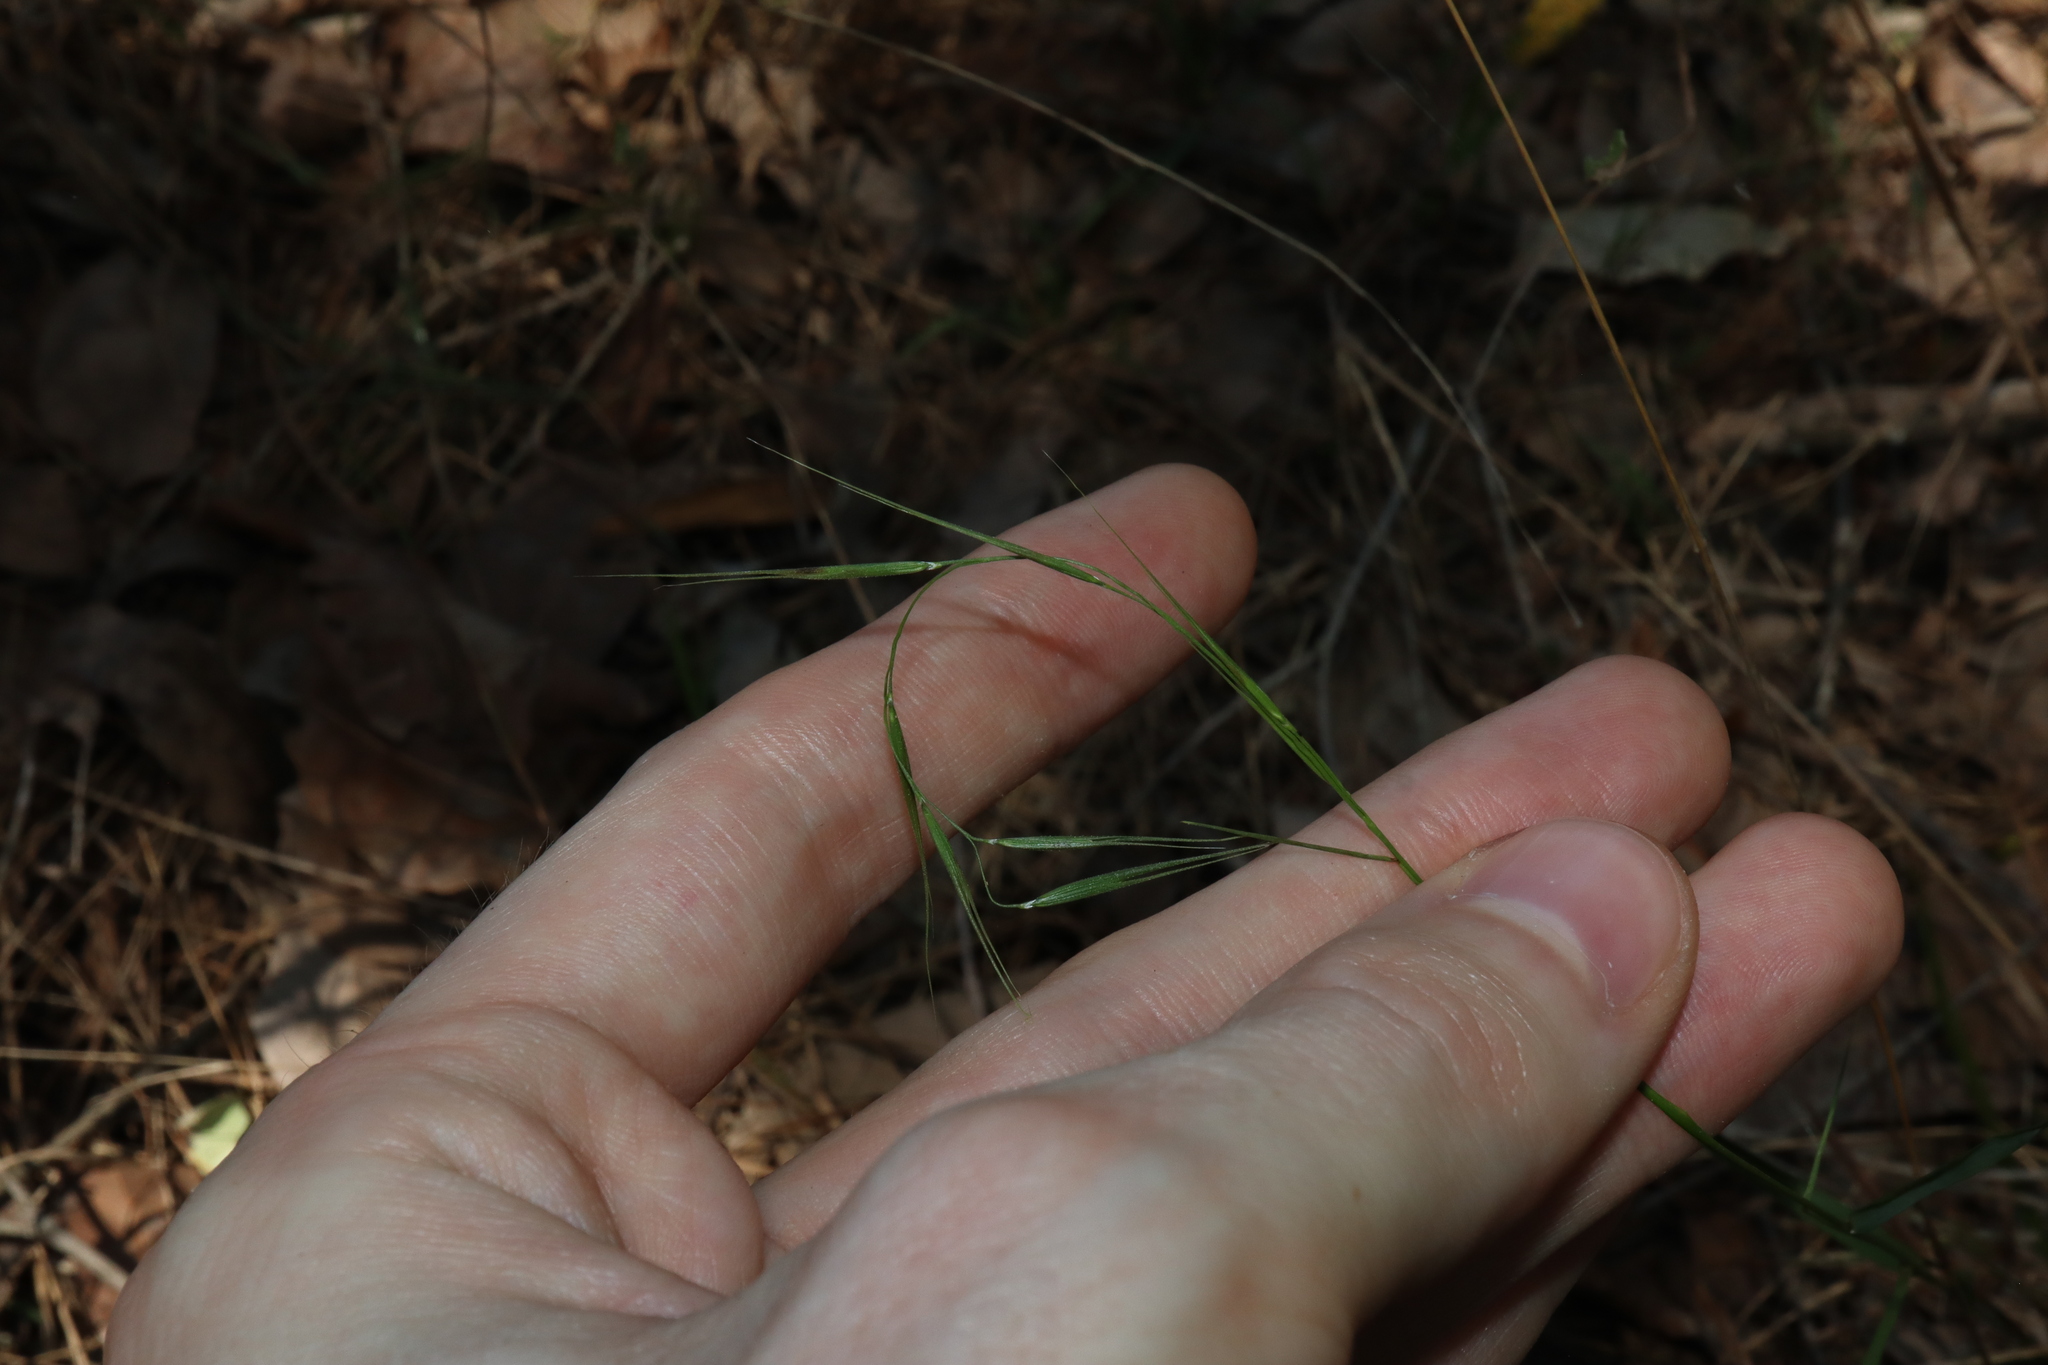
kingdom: Plantae
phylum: Tracheophyta
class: Liliopsida
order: Poales
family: Poaceae
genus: Microlaena
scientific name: Microlaena stipoides
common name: Meadow ricegrass
